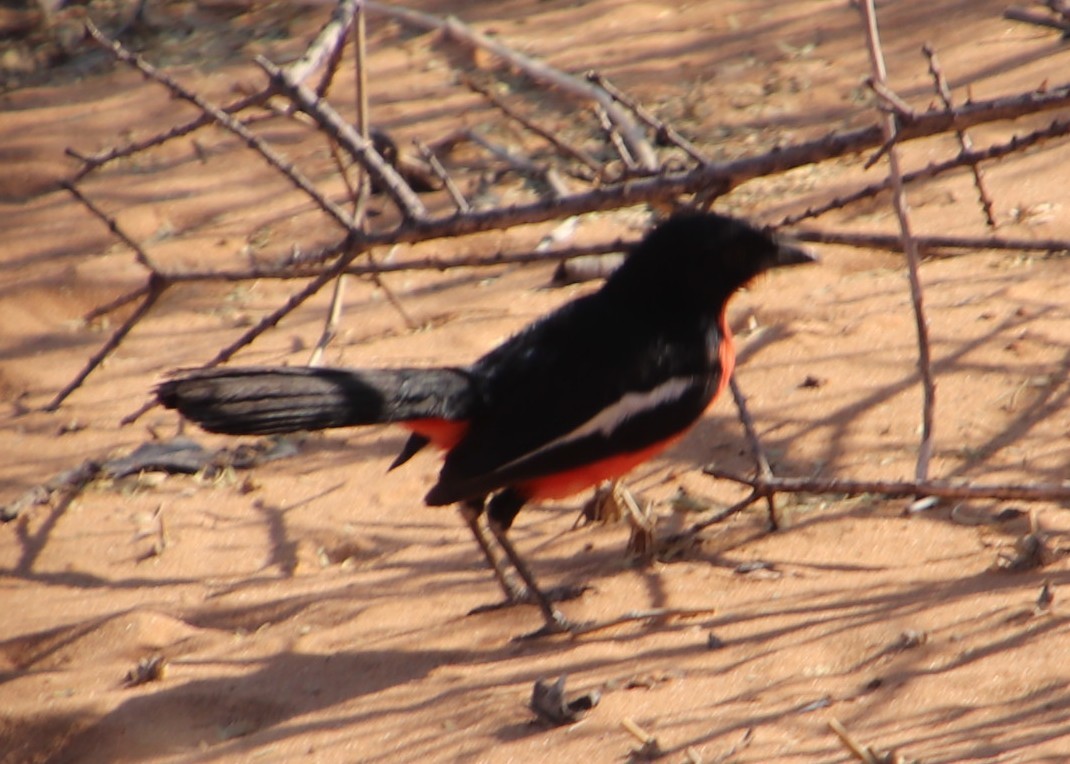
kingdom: Animalia
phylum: Chordata
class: Aves
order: Passeriformes
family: Malaconotidae
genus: Laniarius
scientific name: Laniarius atrococcineus
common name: Crimson-breasted shrike
